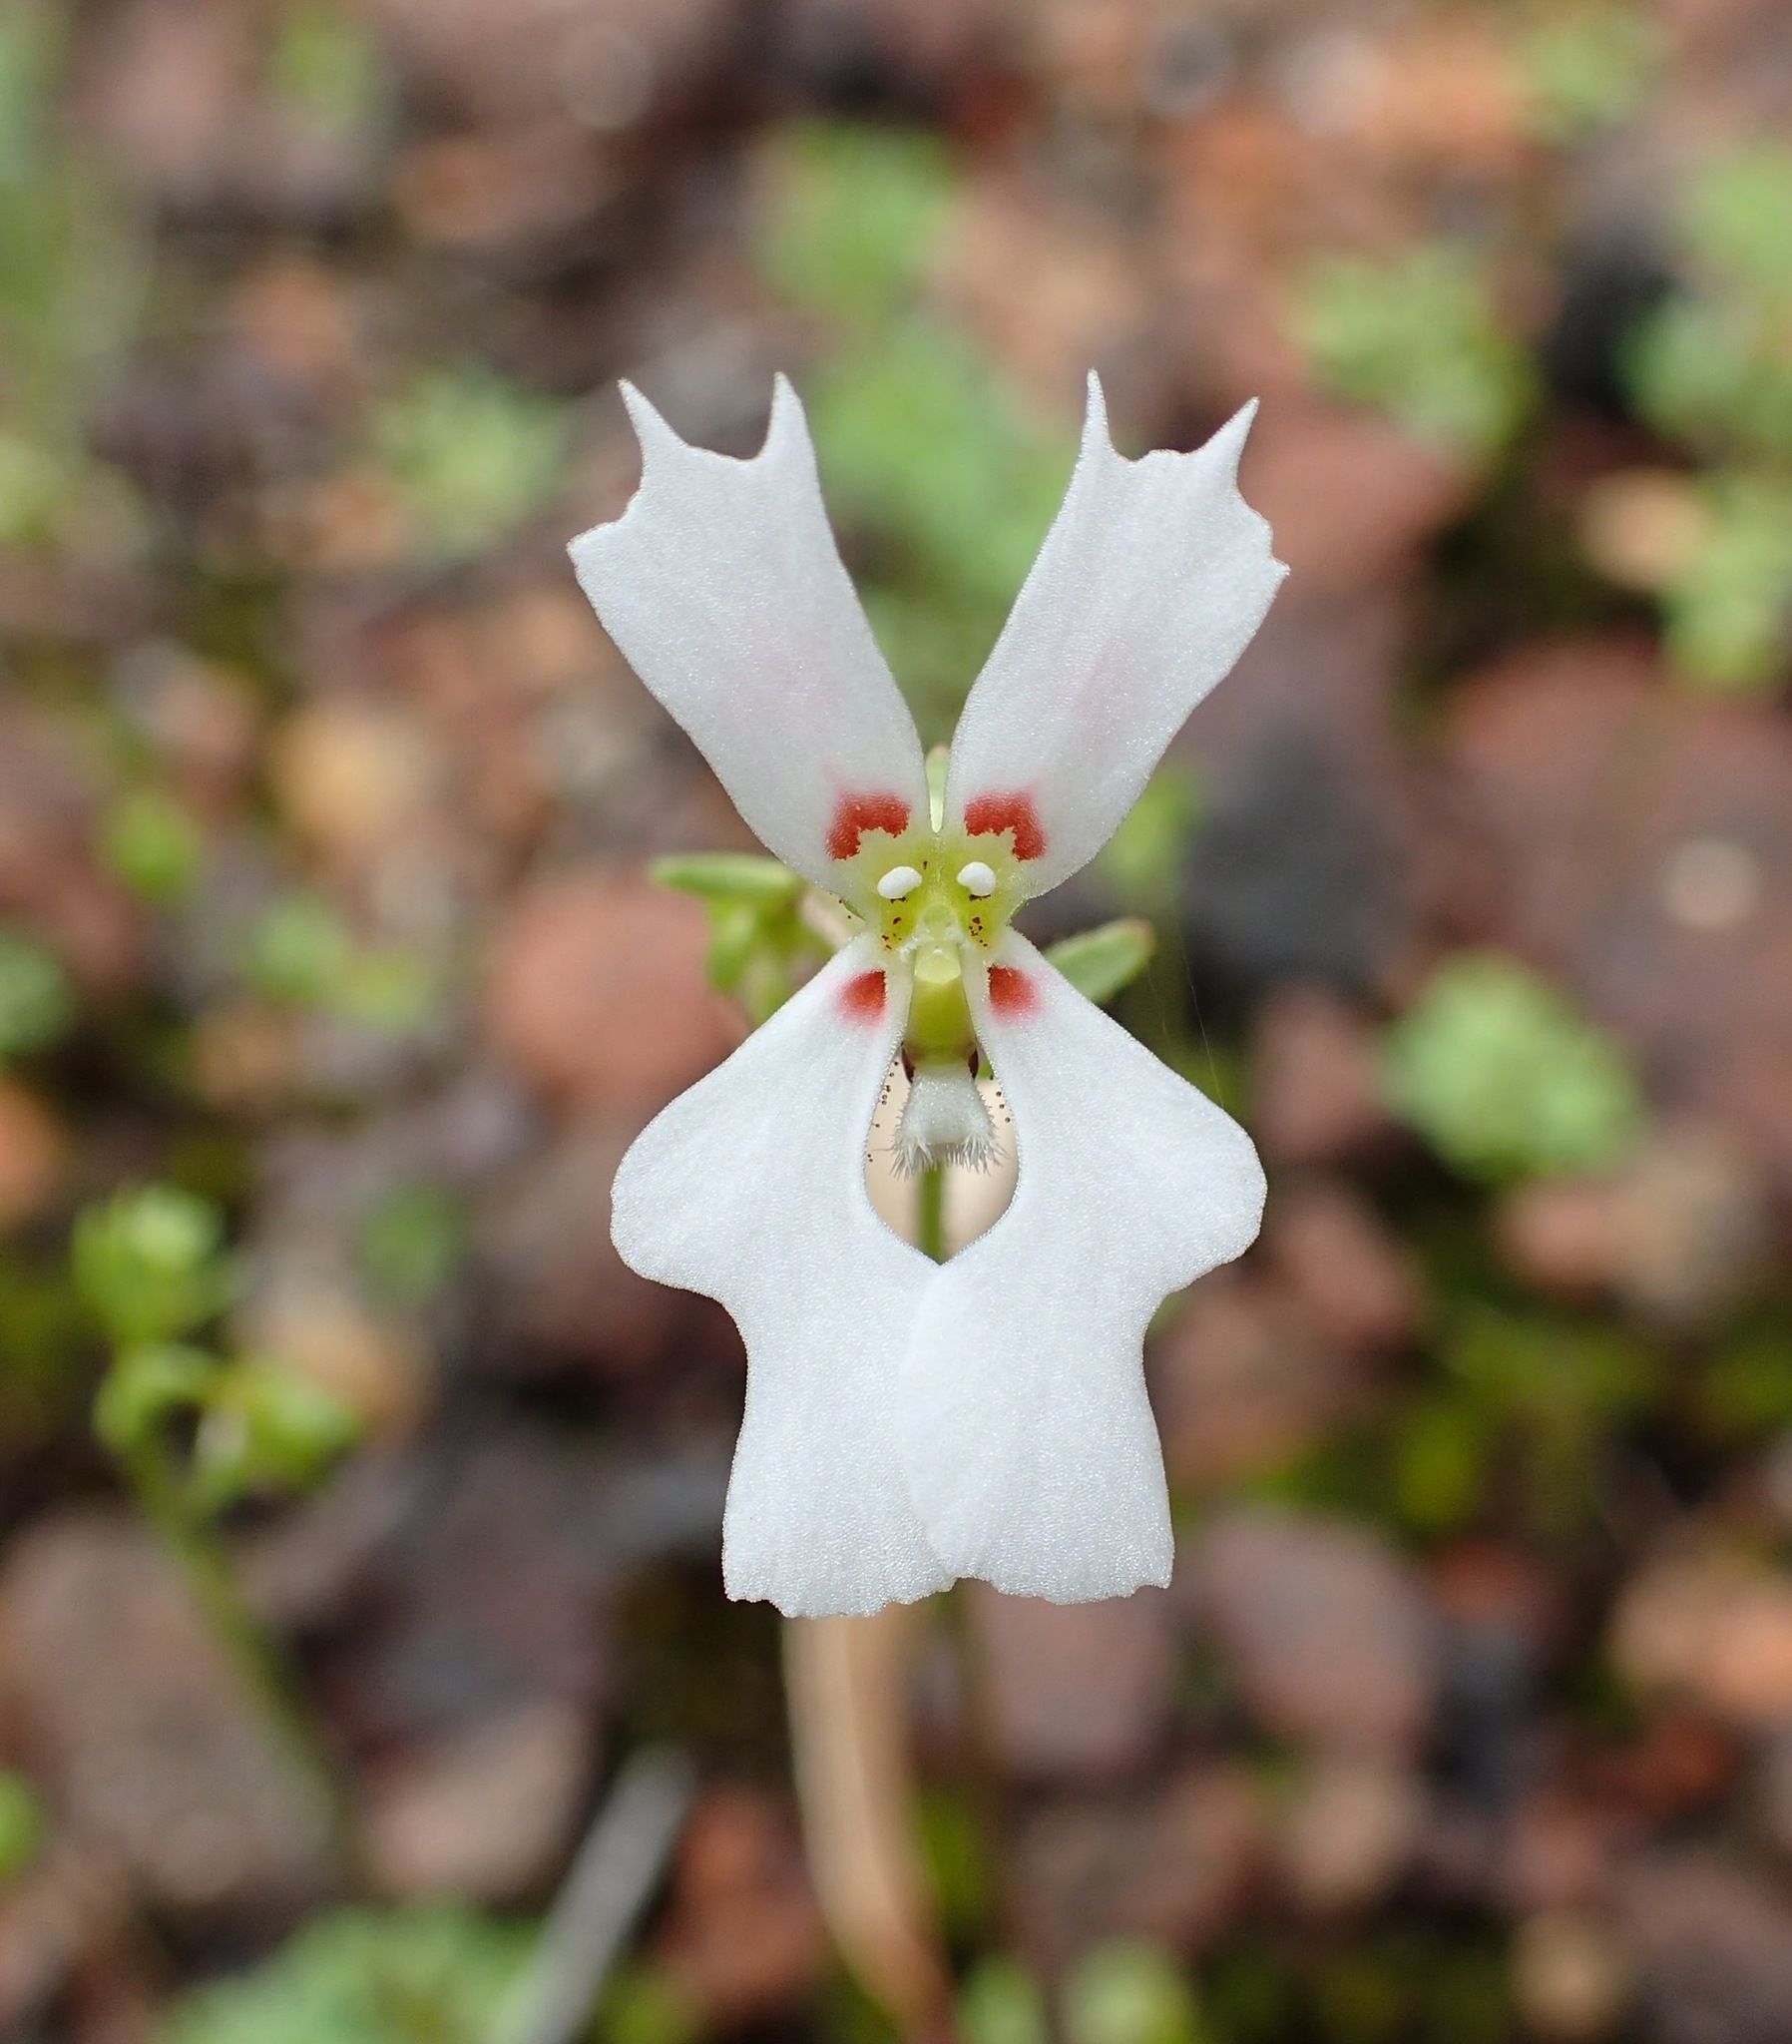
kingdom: Plantae
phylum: Tracheophyta
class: Magnoliopsida
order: Asterales
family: Stylidiaceae
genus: Stylidium
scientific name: Stylidium androsaceum
